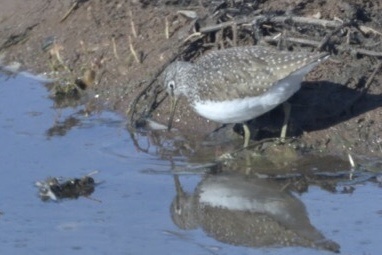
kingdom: Animalia
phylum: Chordata
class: Aves
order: Charadriiformes
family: Scolopacidae
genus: Tringa
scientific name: Tringa ochropus
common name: Green sandpiper
